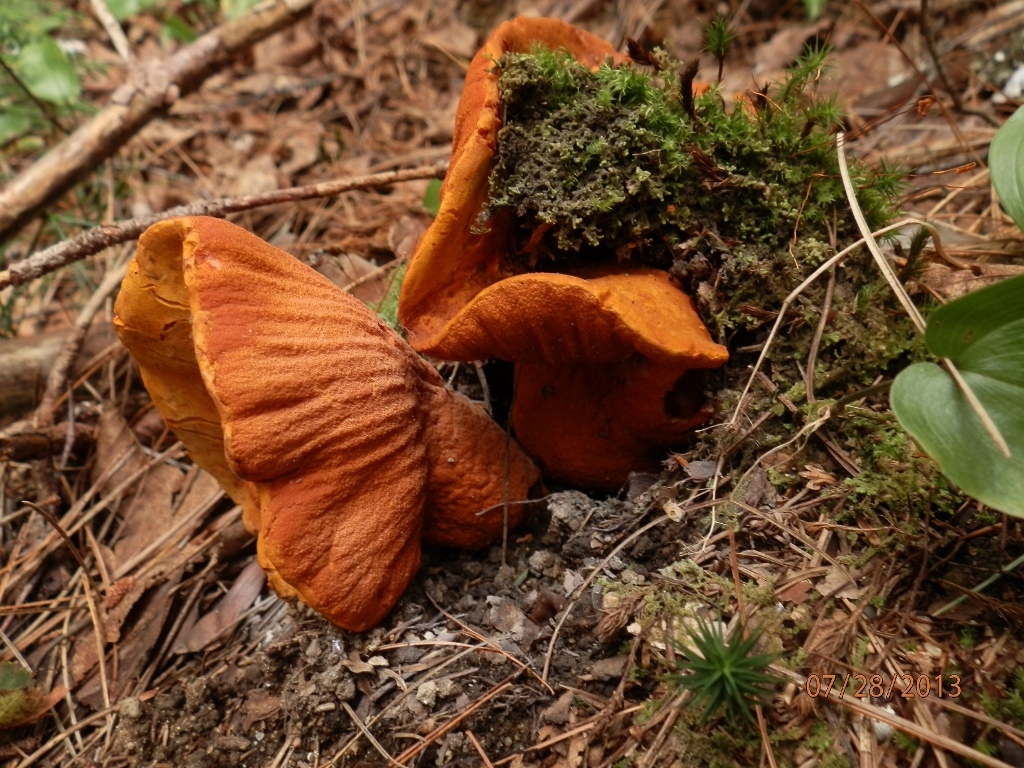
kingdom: Fungi
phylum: Ascomycota
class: Sordariomycetes
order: Hypocreales
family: Hypocreaceae
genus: Hypomyces
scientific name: Hypomyces lactifluorum
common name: Lobster mushroom
